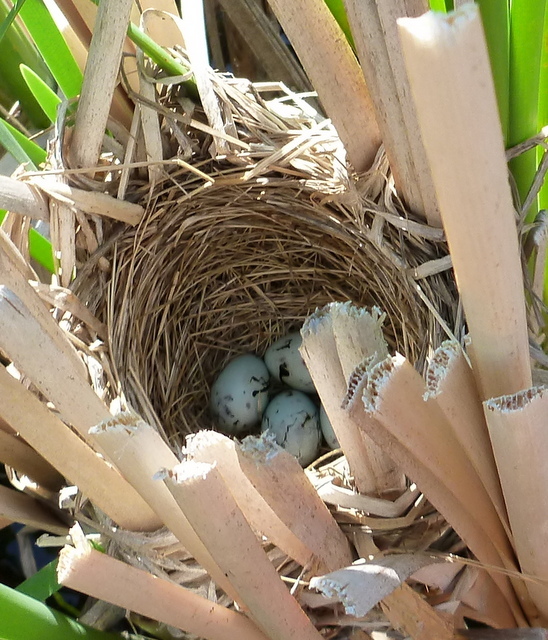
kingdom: Animalia
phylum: Chordata
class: Aves
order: Passeriformes
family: Icteridae
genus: Agelaius
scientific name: Agelaius phoeniceus
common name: Red-winged blackbird
